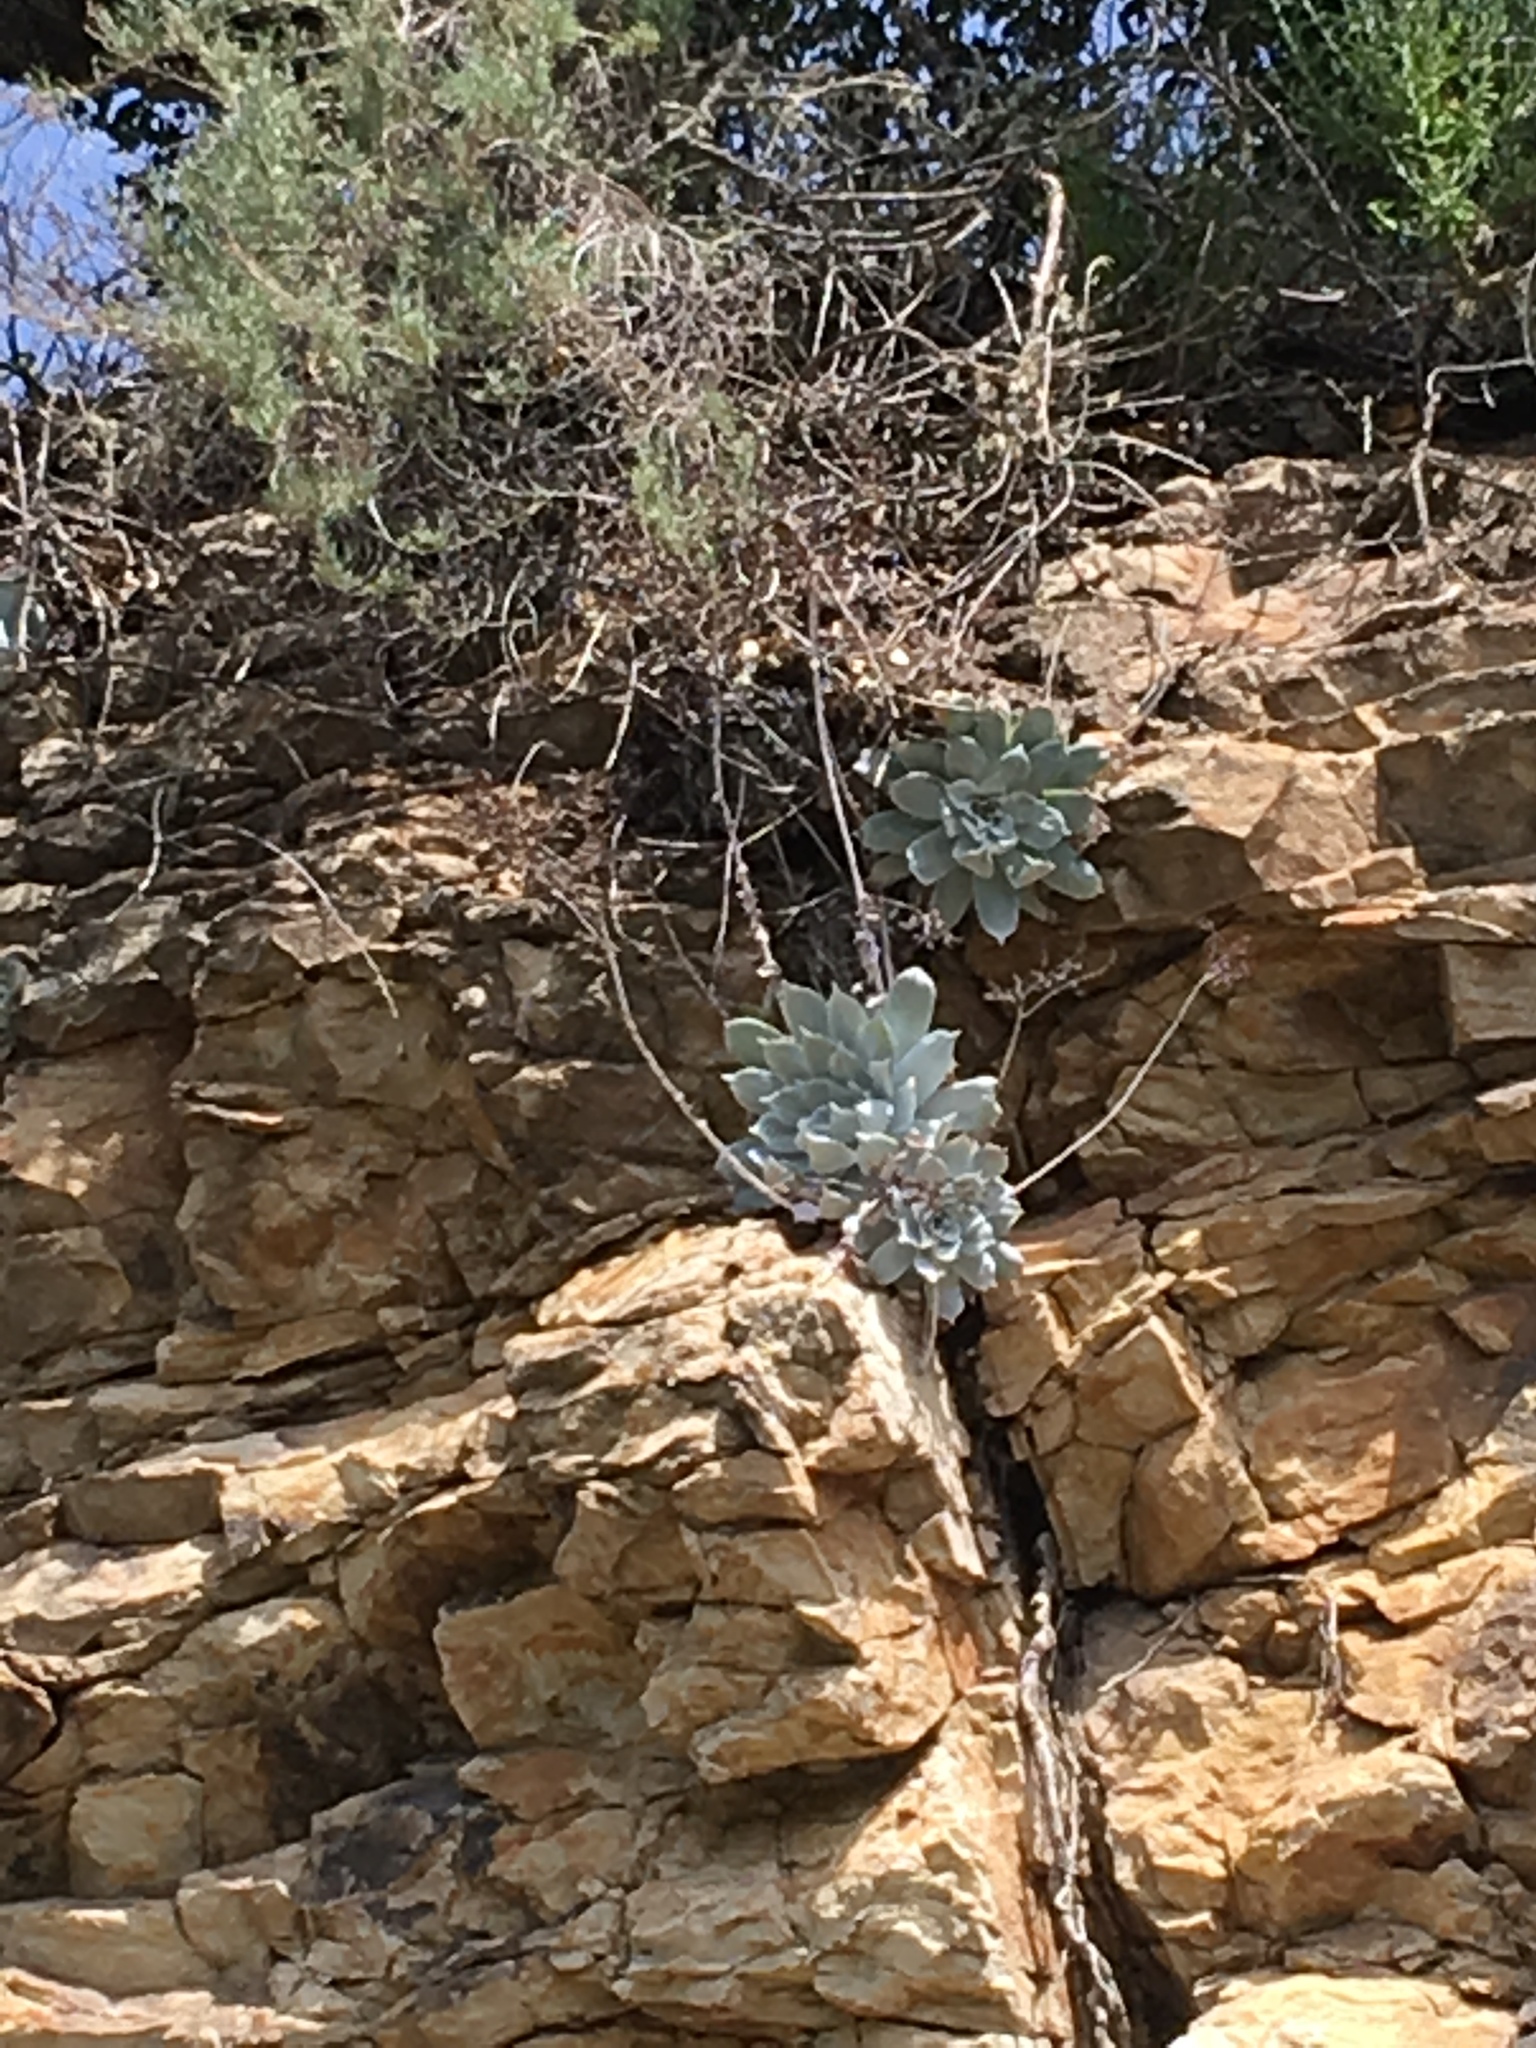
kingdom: Plantae
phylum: Tracheophyta
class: Magnoliopsida
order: Saxifragales
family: Crassulaceae
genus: Dudleya
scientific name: Dudleya pulverulenta
